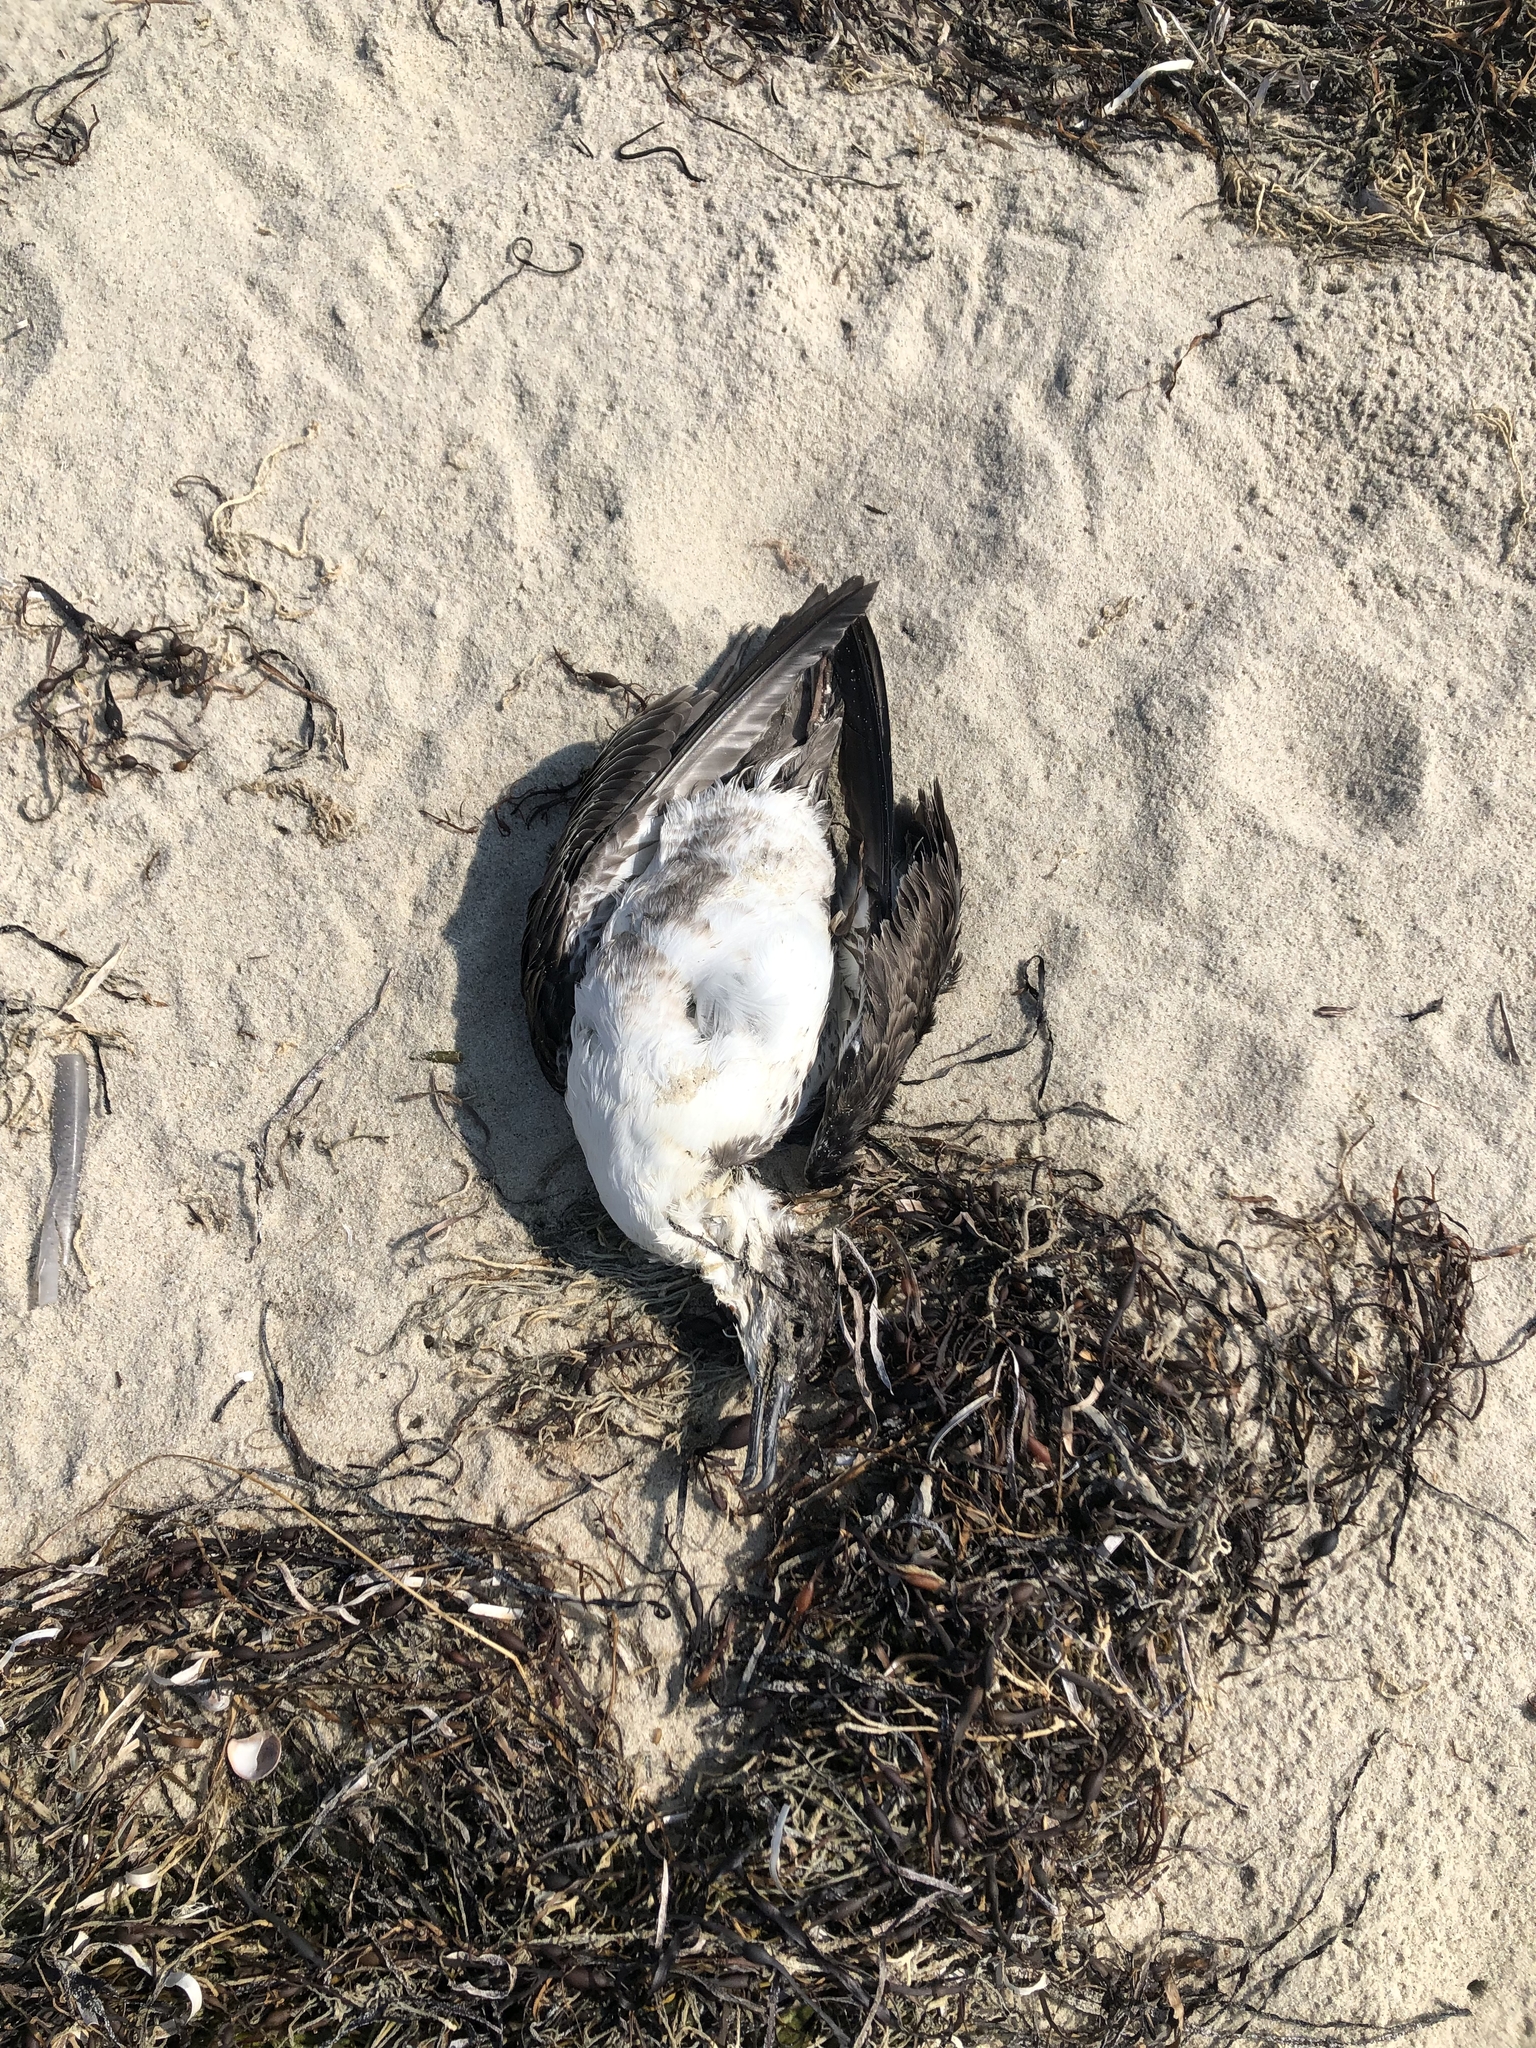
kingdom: Animalia
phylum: Chordata
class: Aves
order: Procellariiformes
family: Procellariidae
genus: Puffinus
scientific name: Puffinus gravis
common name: Great shearwater
